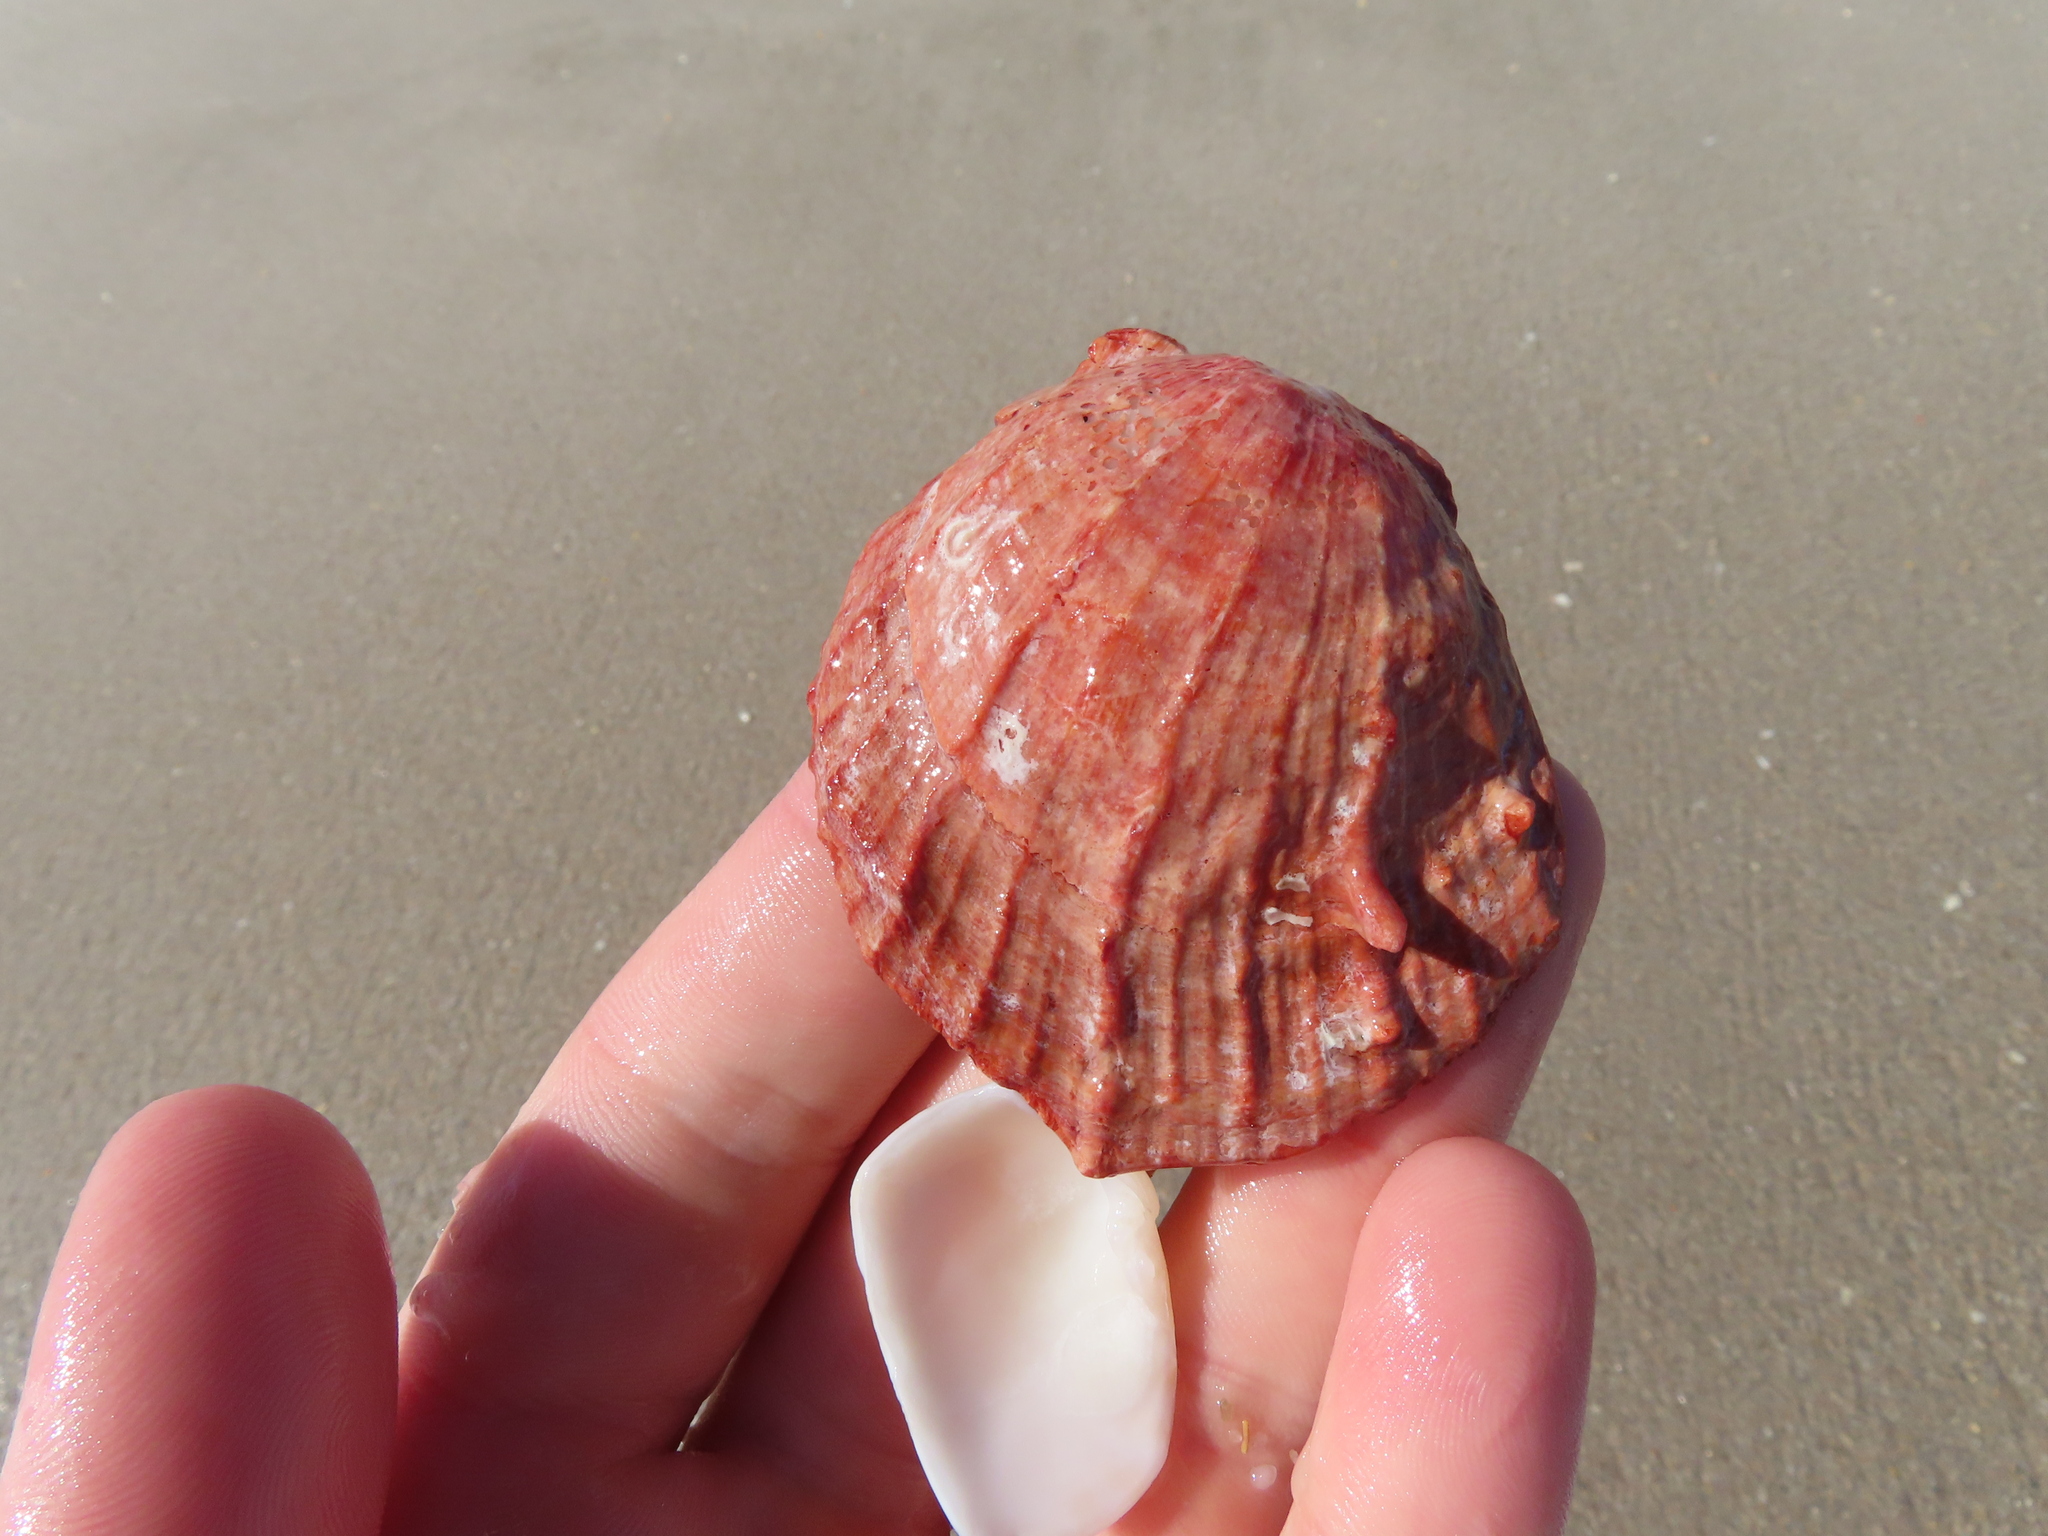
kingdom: Animalia
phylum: Mollusca
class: Bivalvia
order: Pectinida
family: Spondylidae
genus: Spondylus
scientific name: Spondylus tenuis
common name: Digitate thorny oyster
